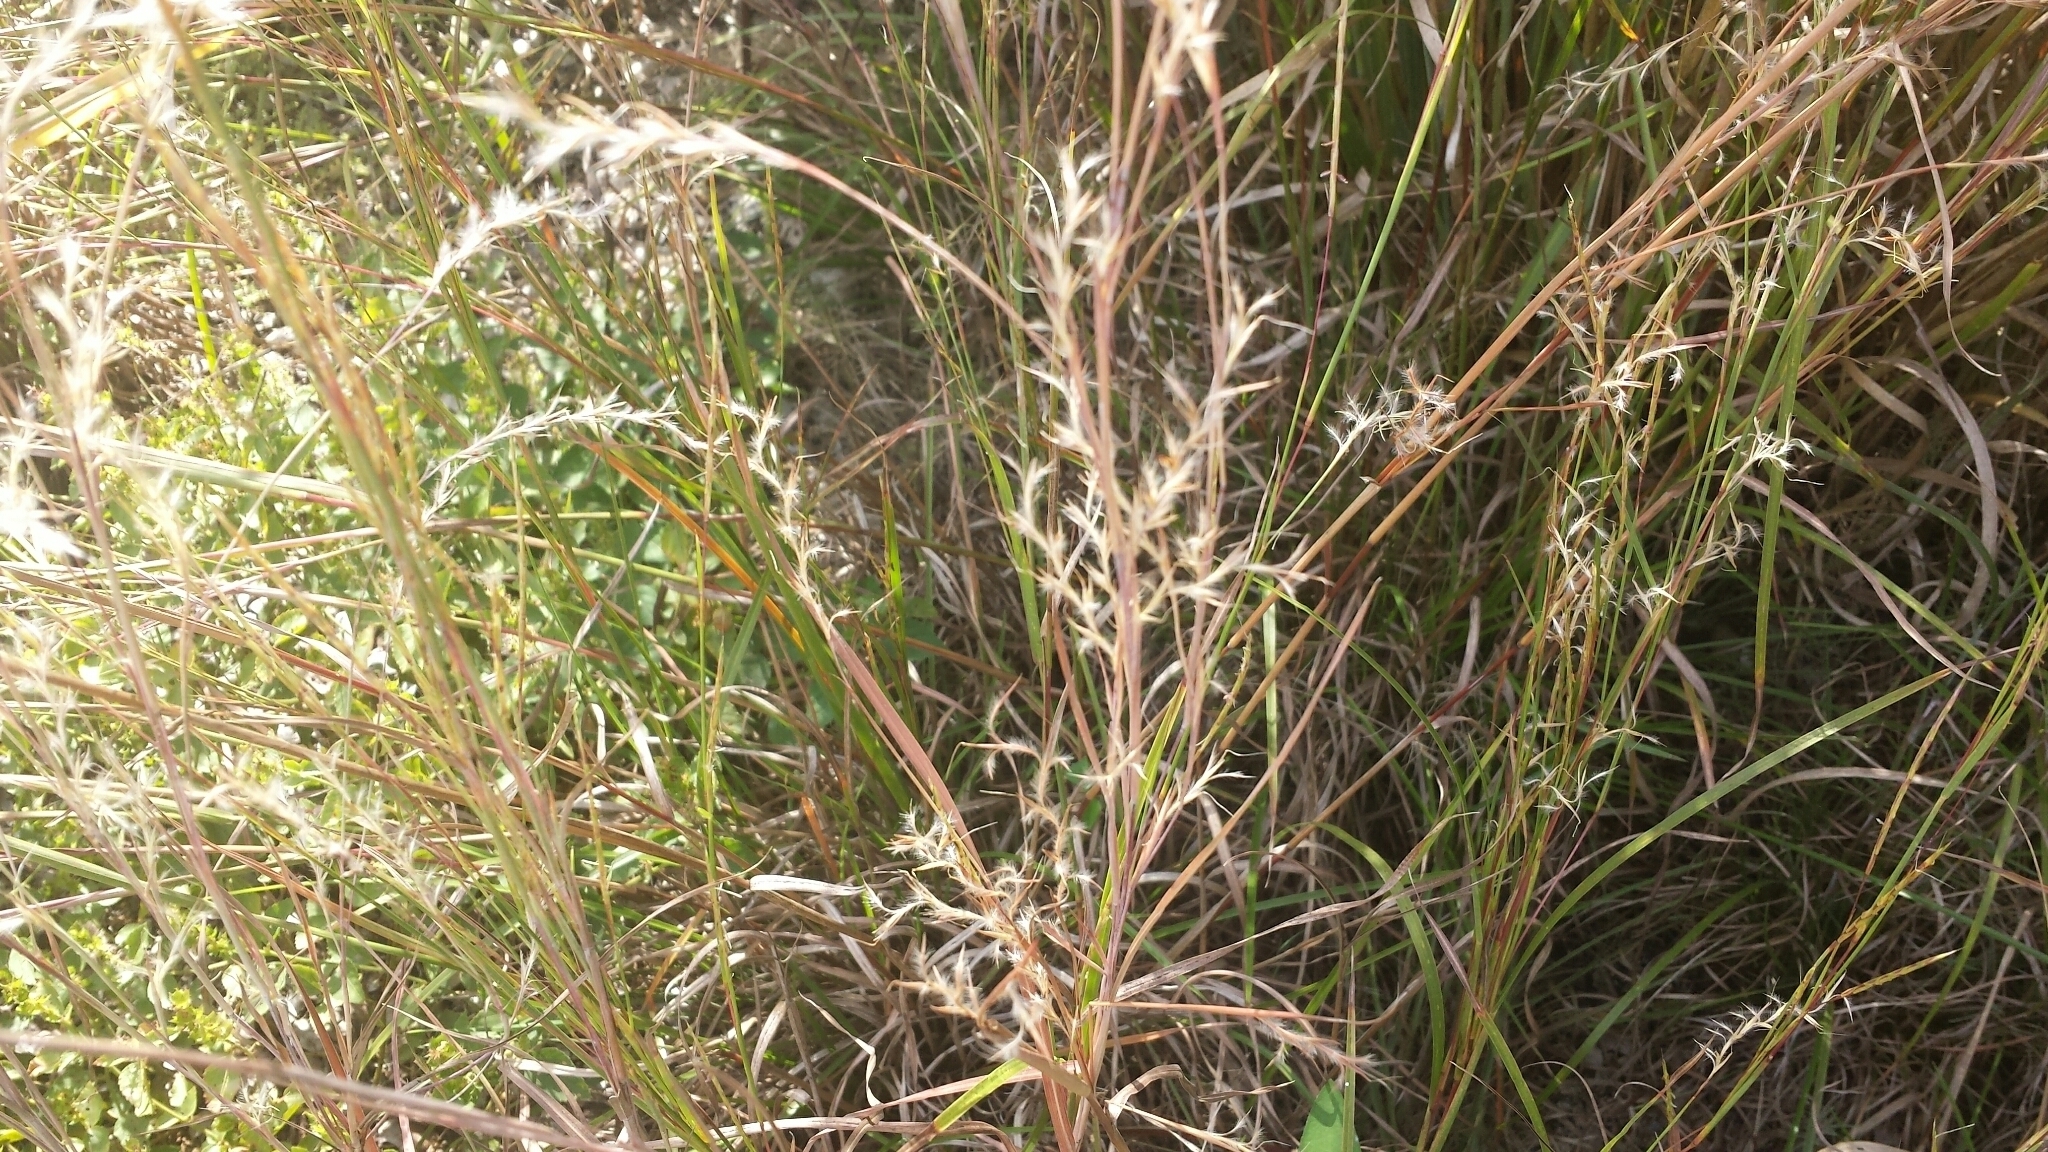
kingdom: Plantae
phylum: Tracheophyta
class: Liliopsida
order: Poales
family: Poaceae
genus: Schizachyrium
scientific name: Schizachyrium scoparium
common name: Little bluestem
